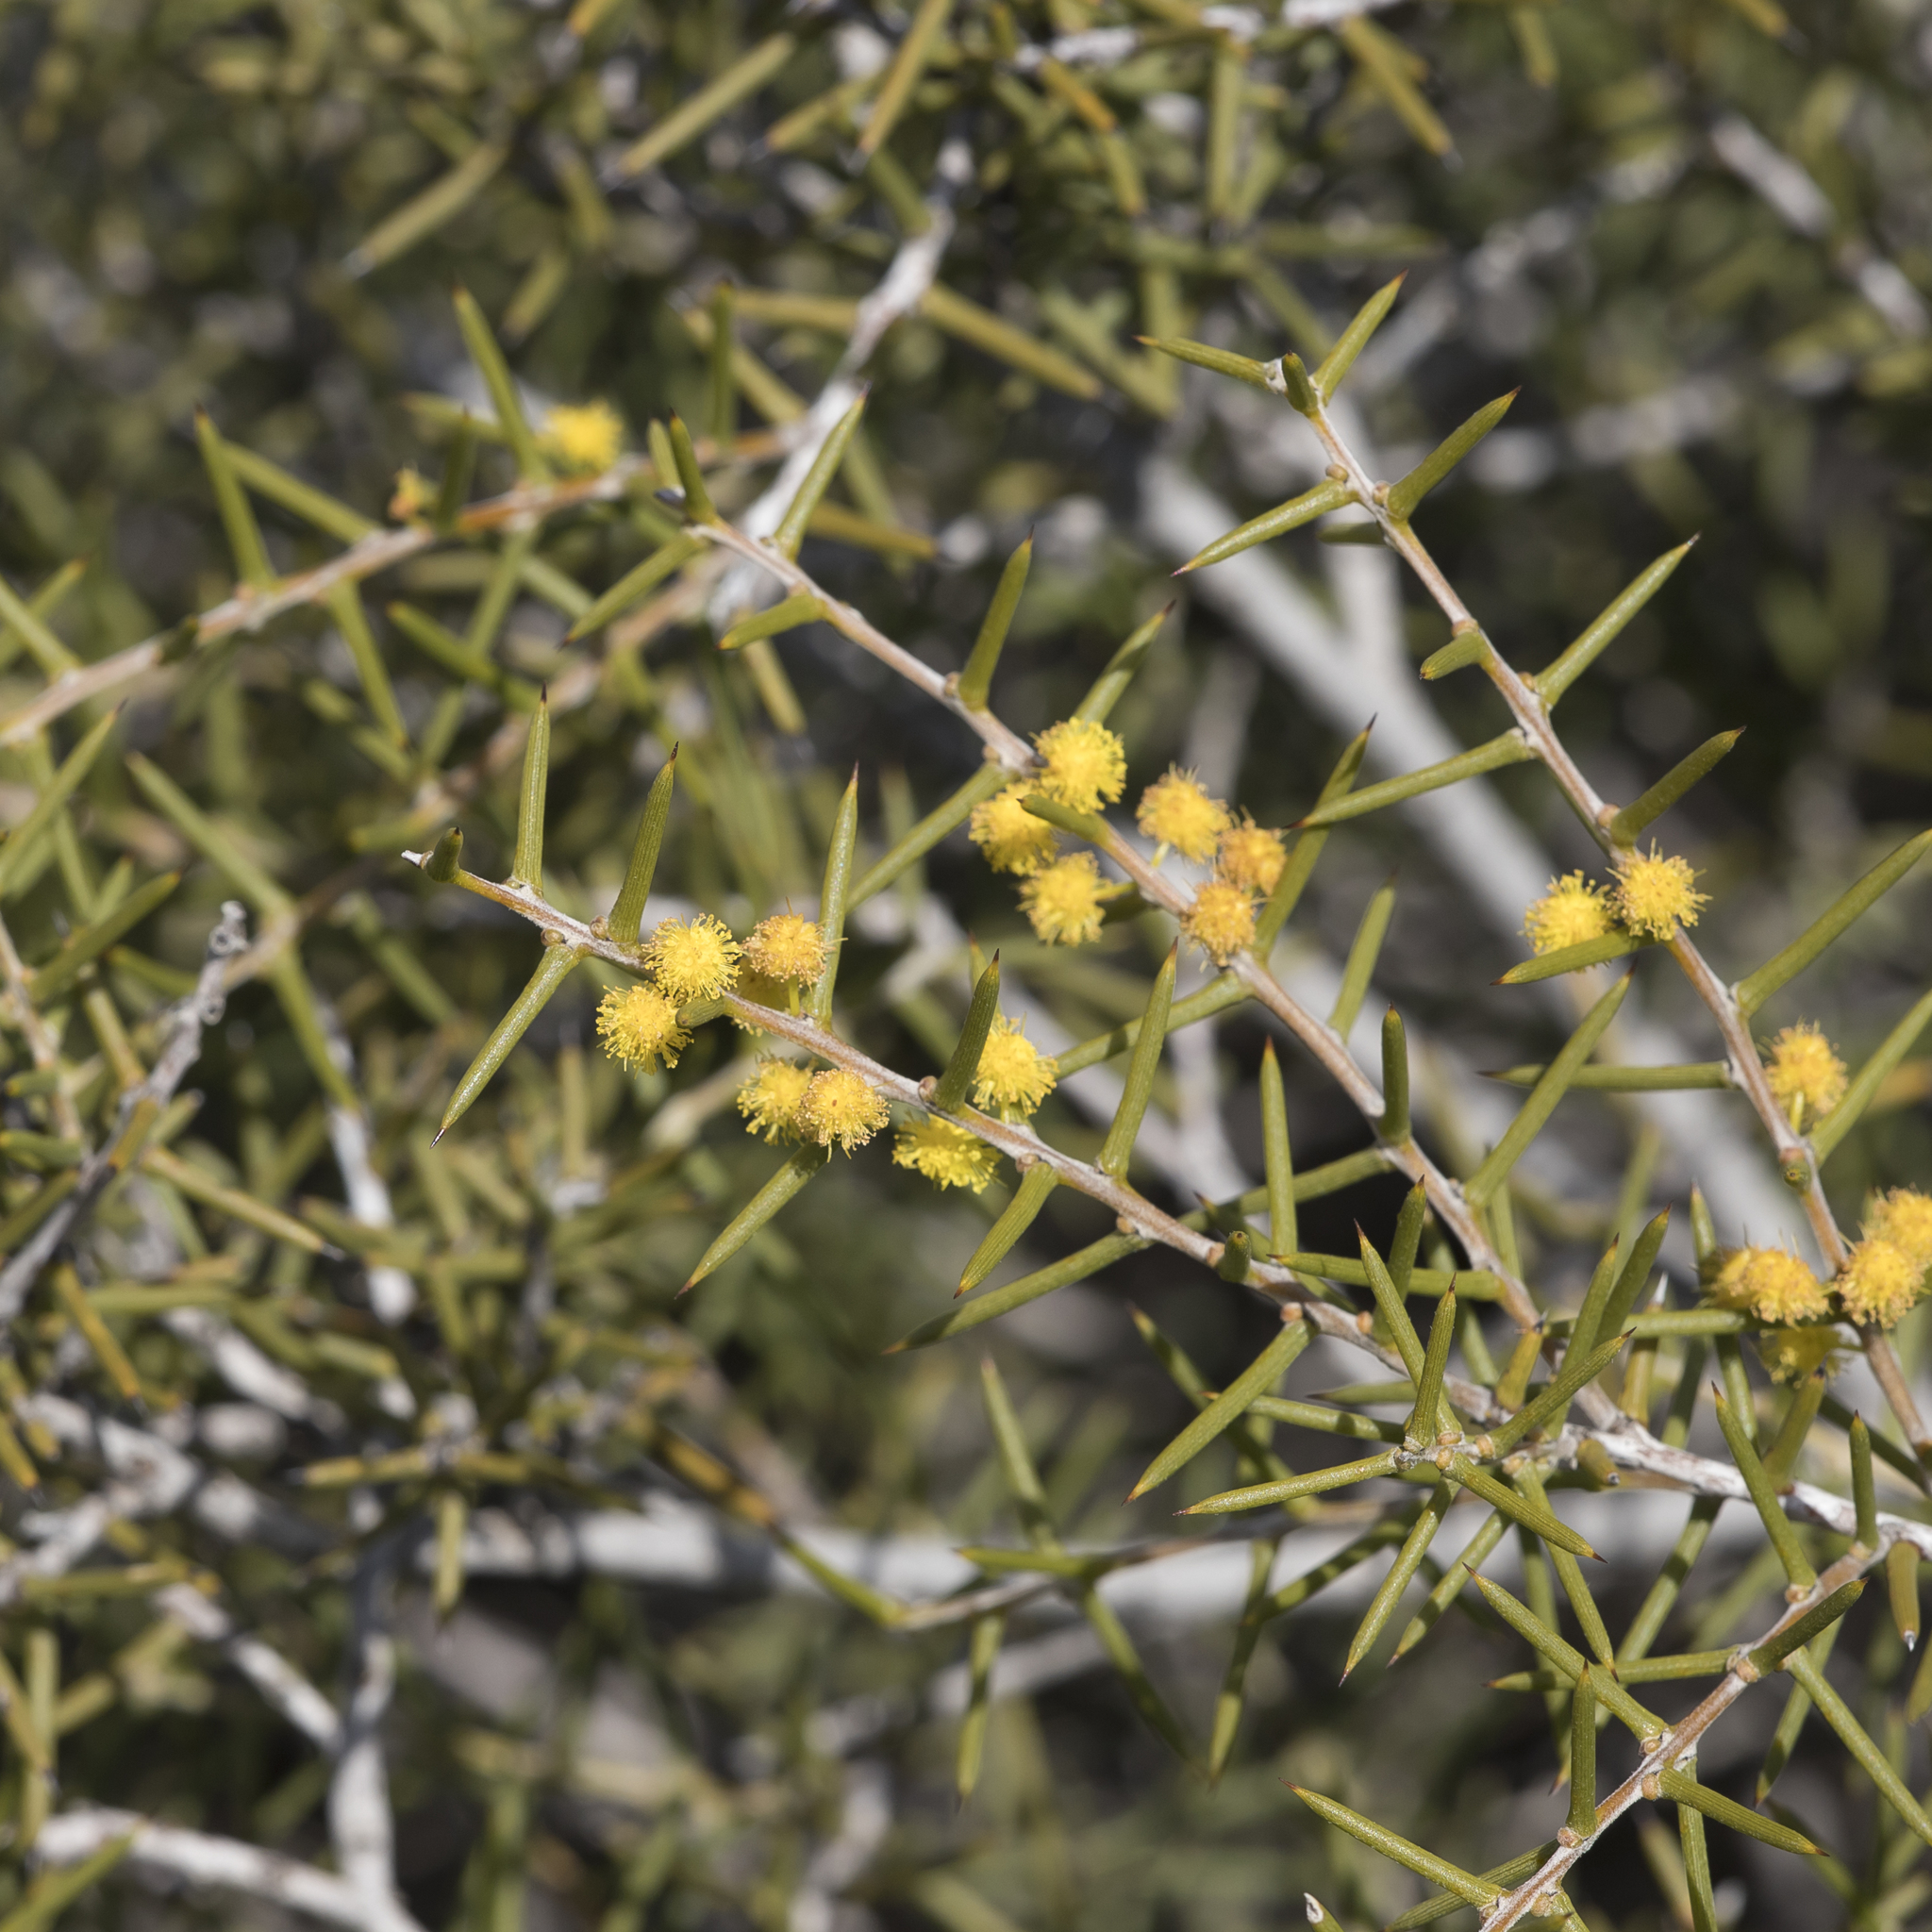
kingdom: Plantae
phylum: Tracheophyta
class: Magnoliopsida
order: Fabales
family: Fabaceae
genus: Acacia
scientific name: Acacia nyssophylla
